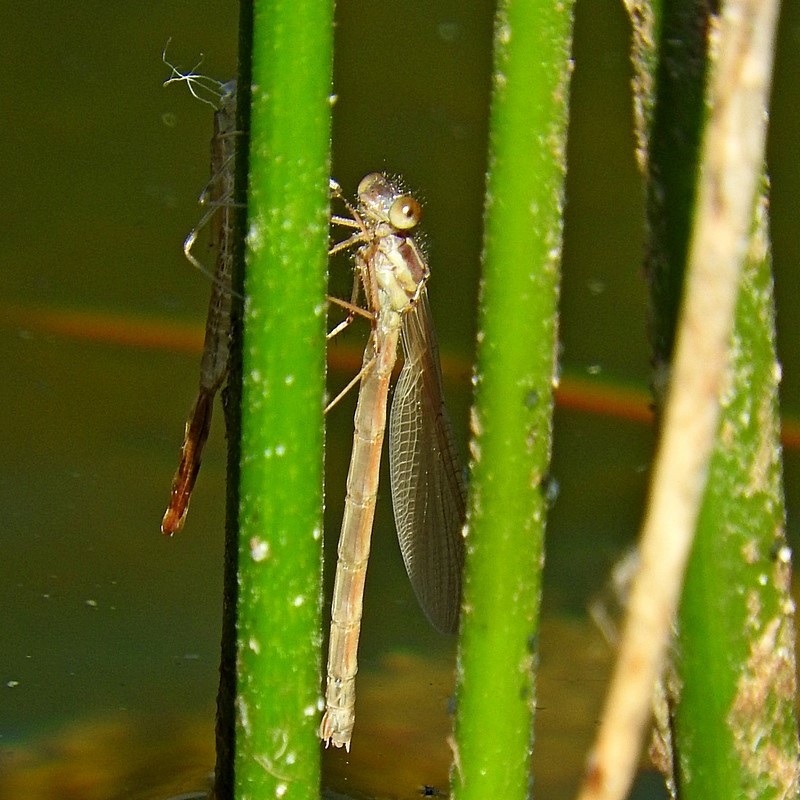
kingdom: Animalia
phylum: Arthropoda
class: Insecta
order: Odonata
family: Lestidae
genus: Austrolestes
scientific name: Austrolestes psyche
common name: Cup ringtail
